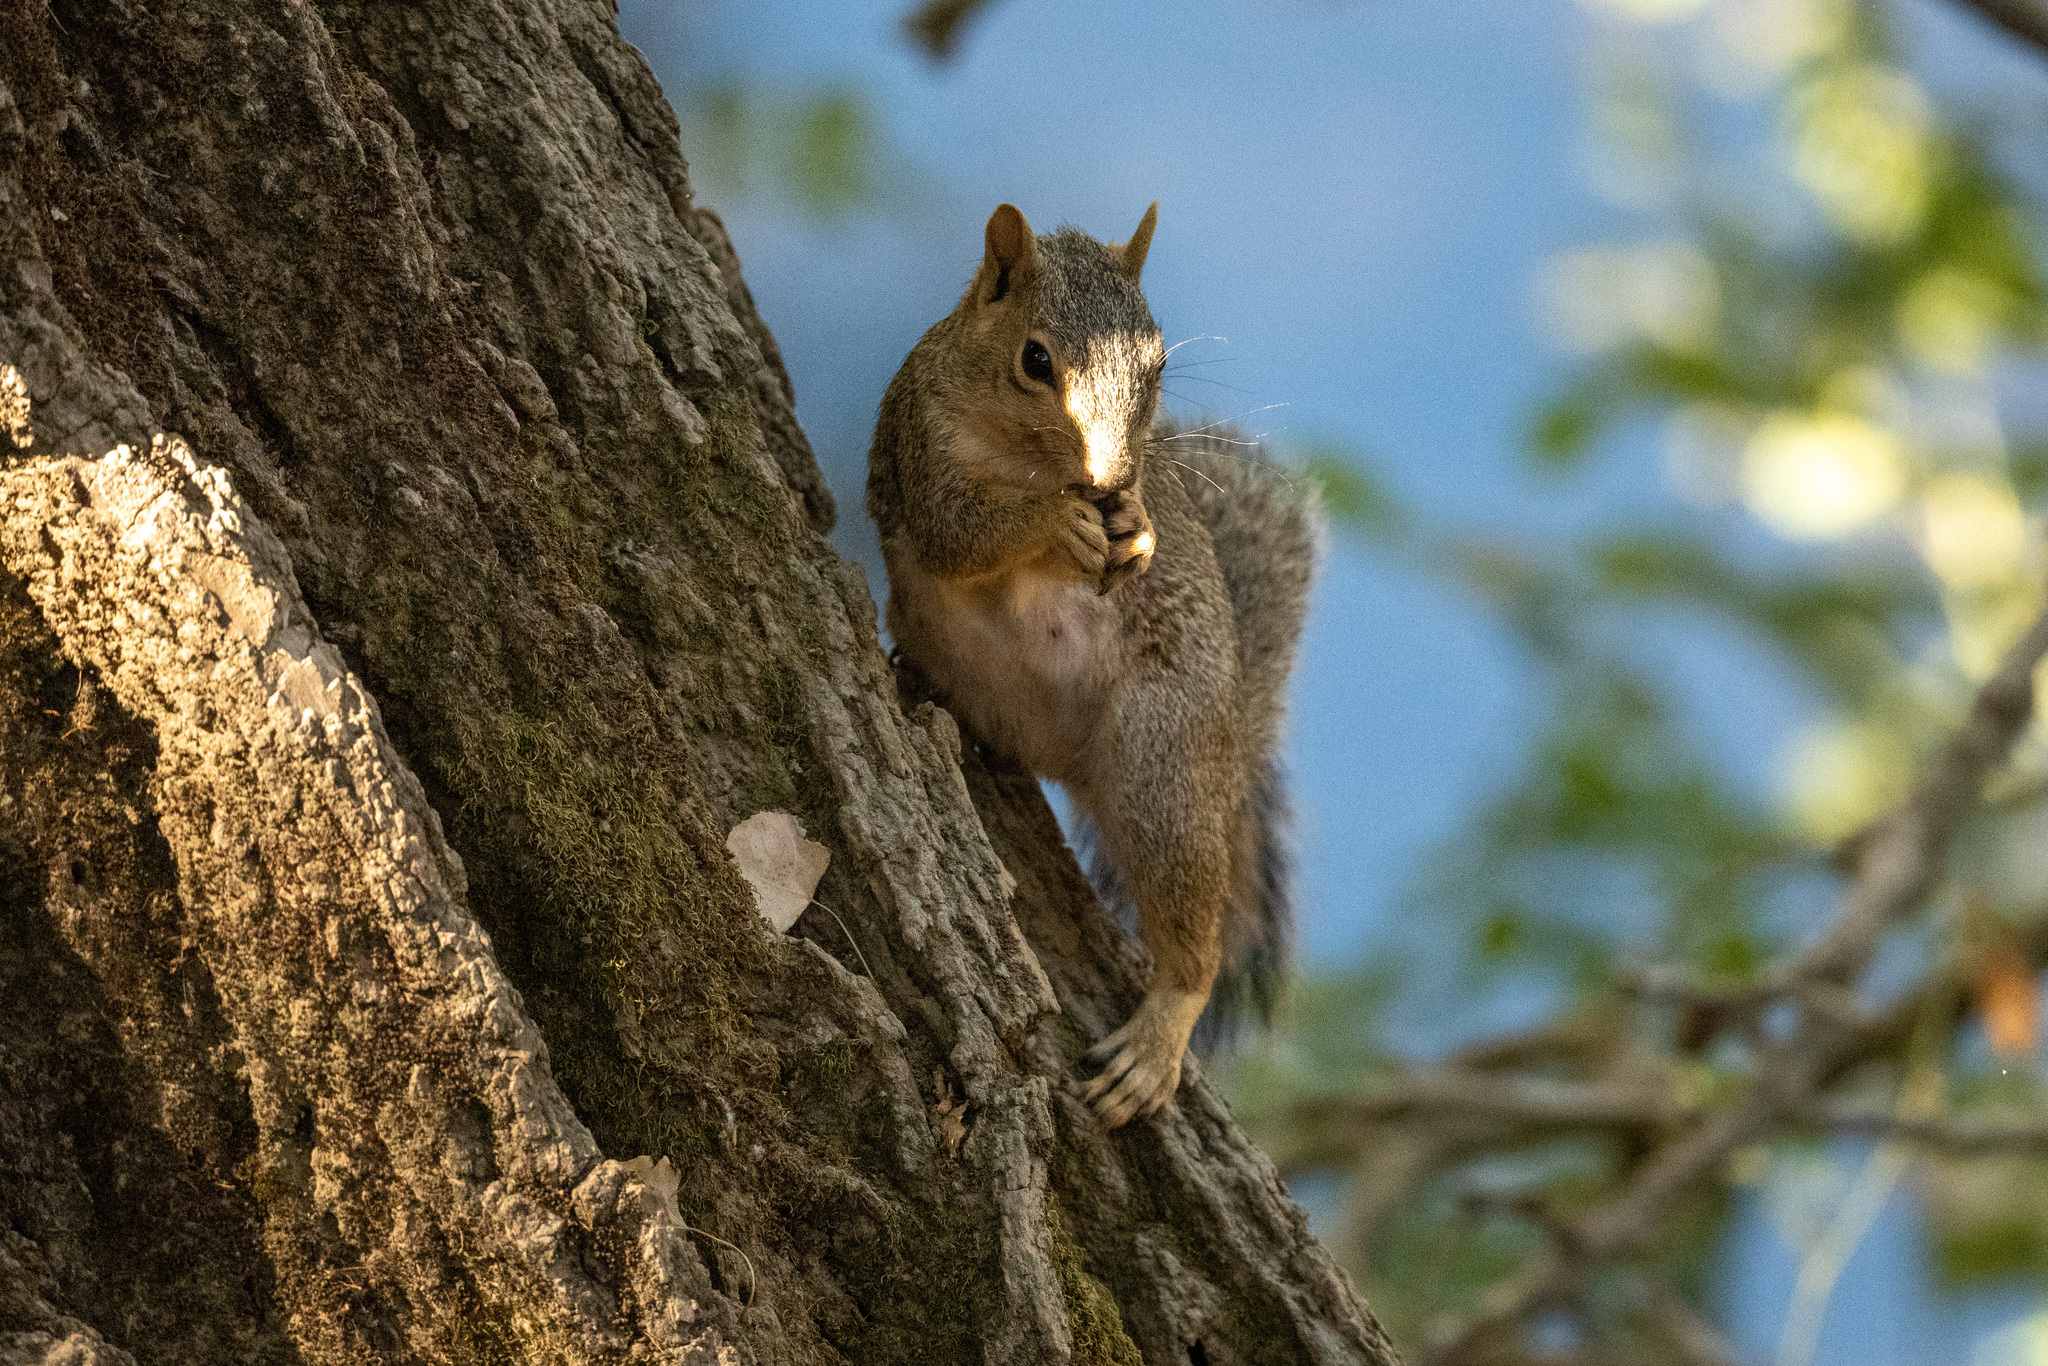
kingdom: Animalia
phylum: Chordata
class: Mammalia
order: Rodentia
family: Sciuridae
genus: Sciurus
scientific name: Sciurus niger
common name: Fox squirrel
